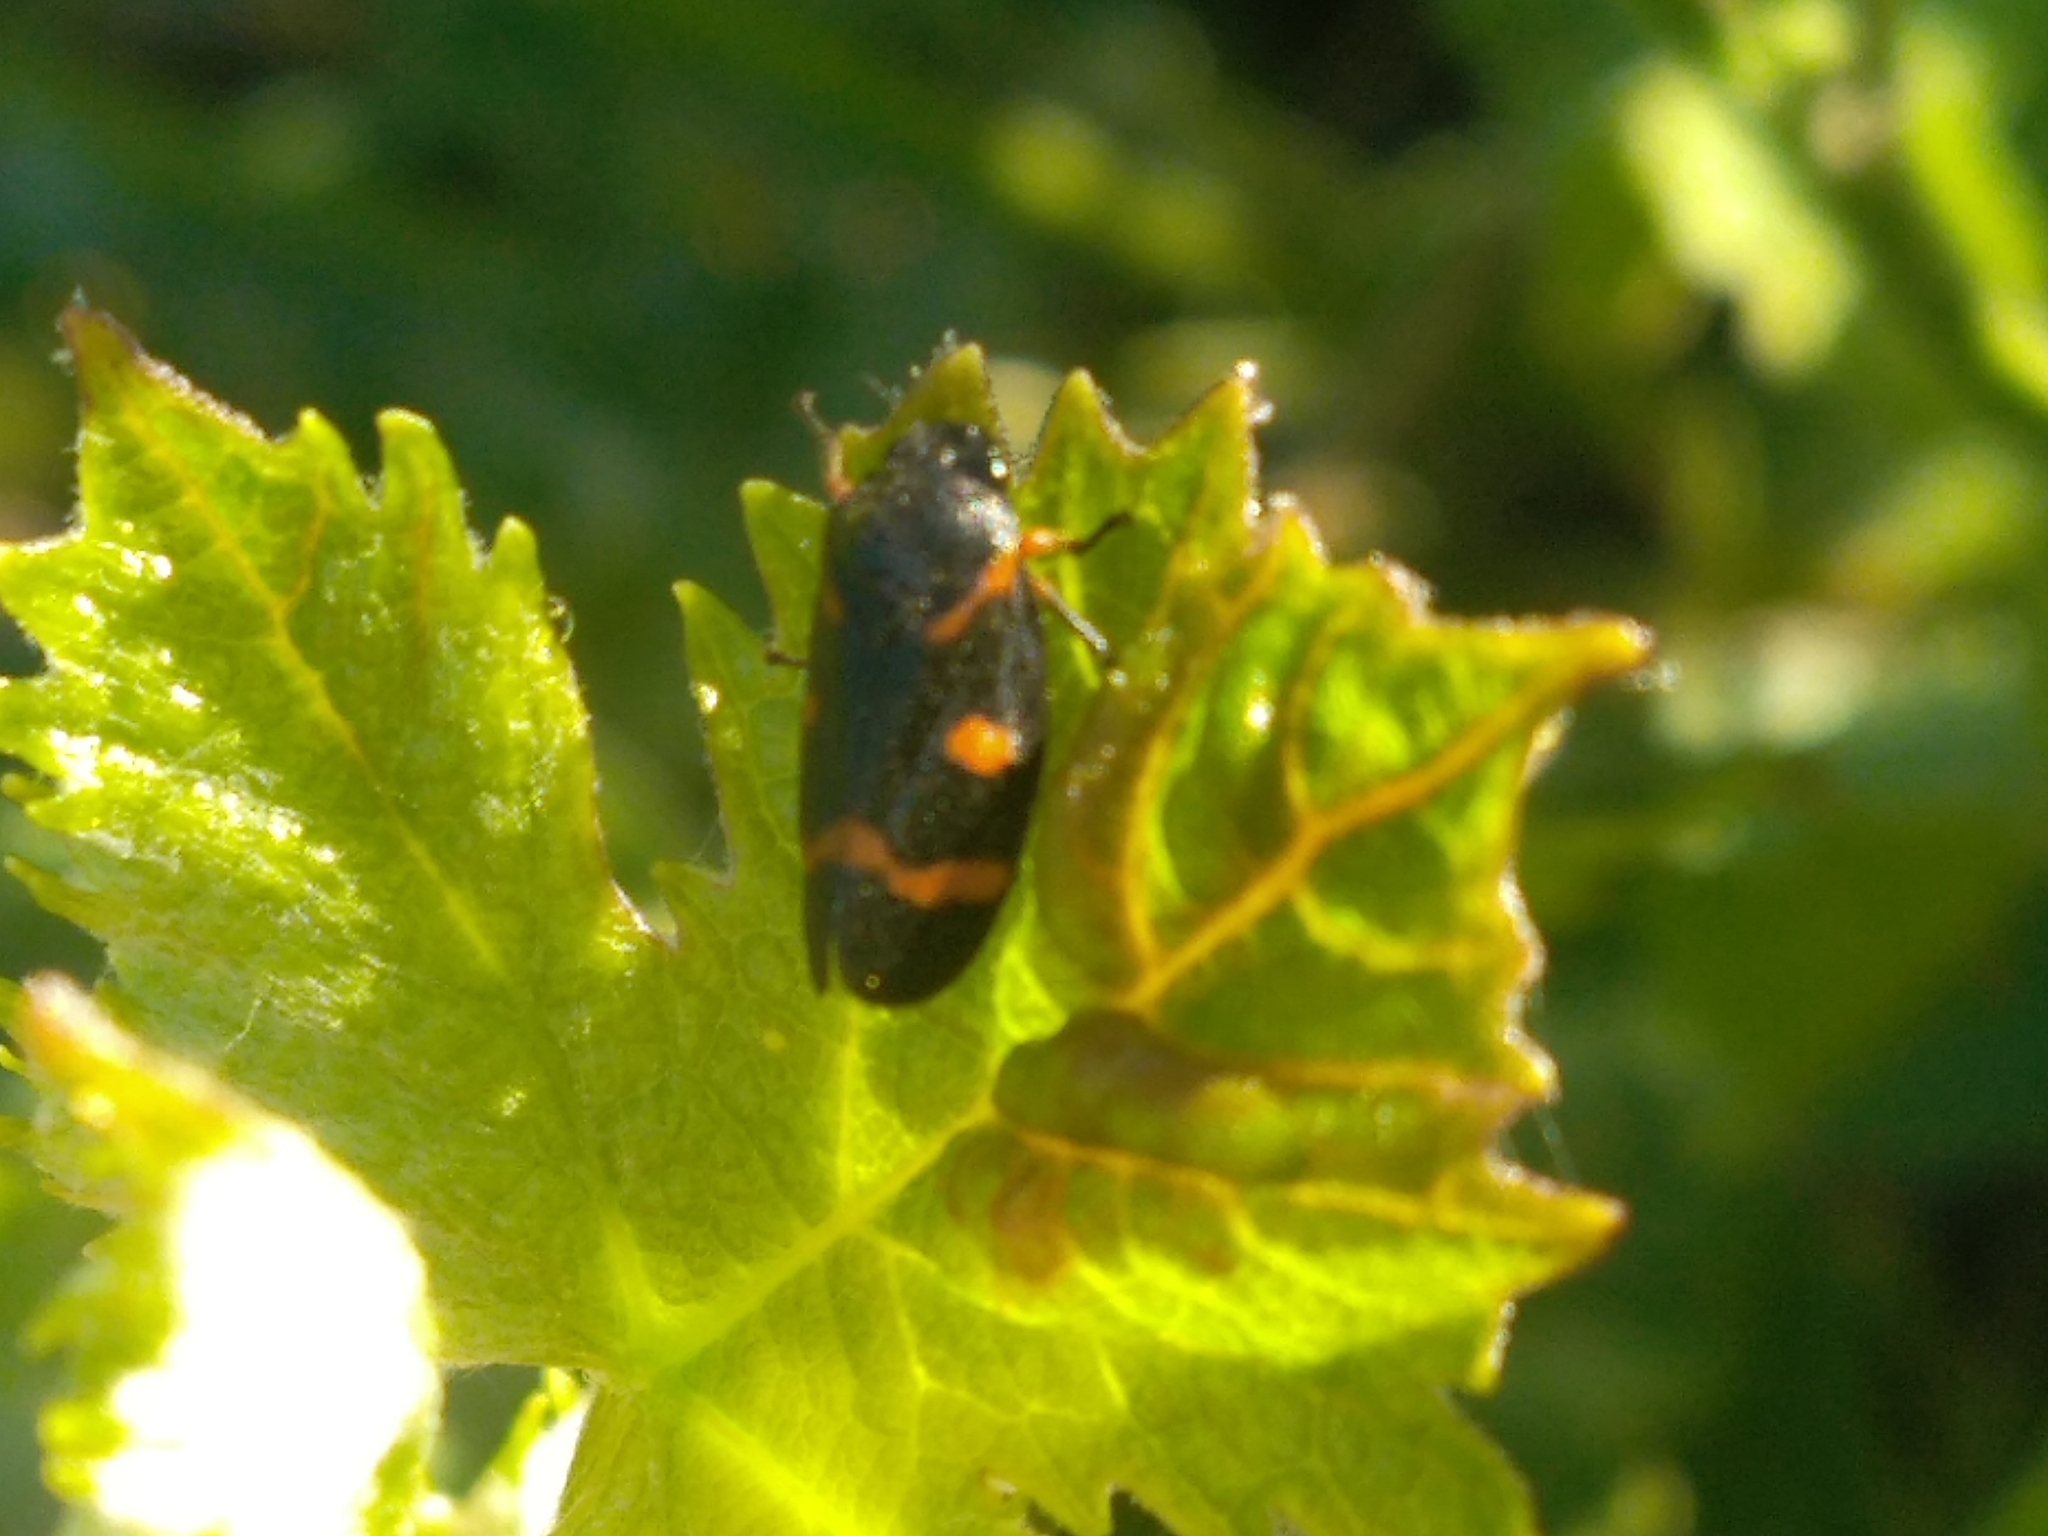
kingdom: Animalia
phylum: Arthropoda
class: Insecta
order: Hemiptera
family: Cercopidae
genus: Cercopis
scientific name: Cercopis intermedia
